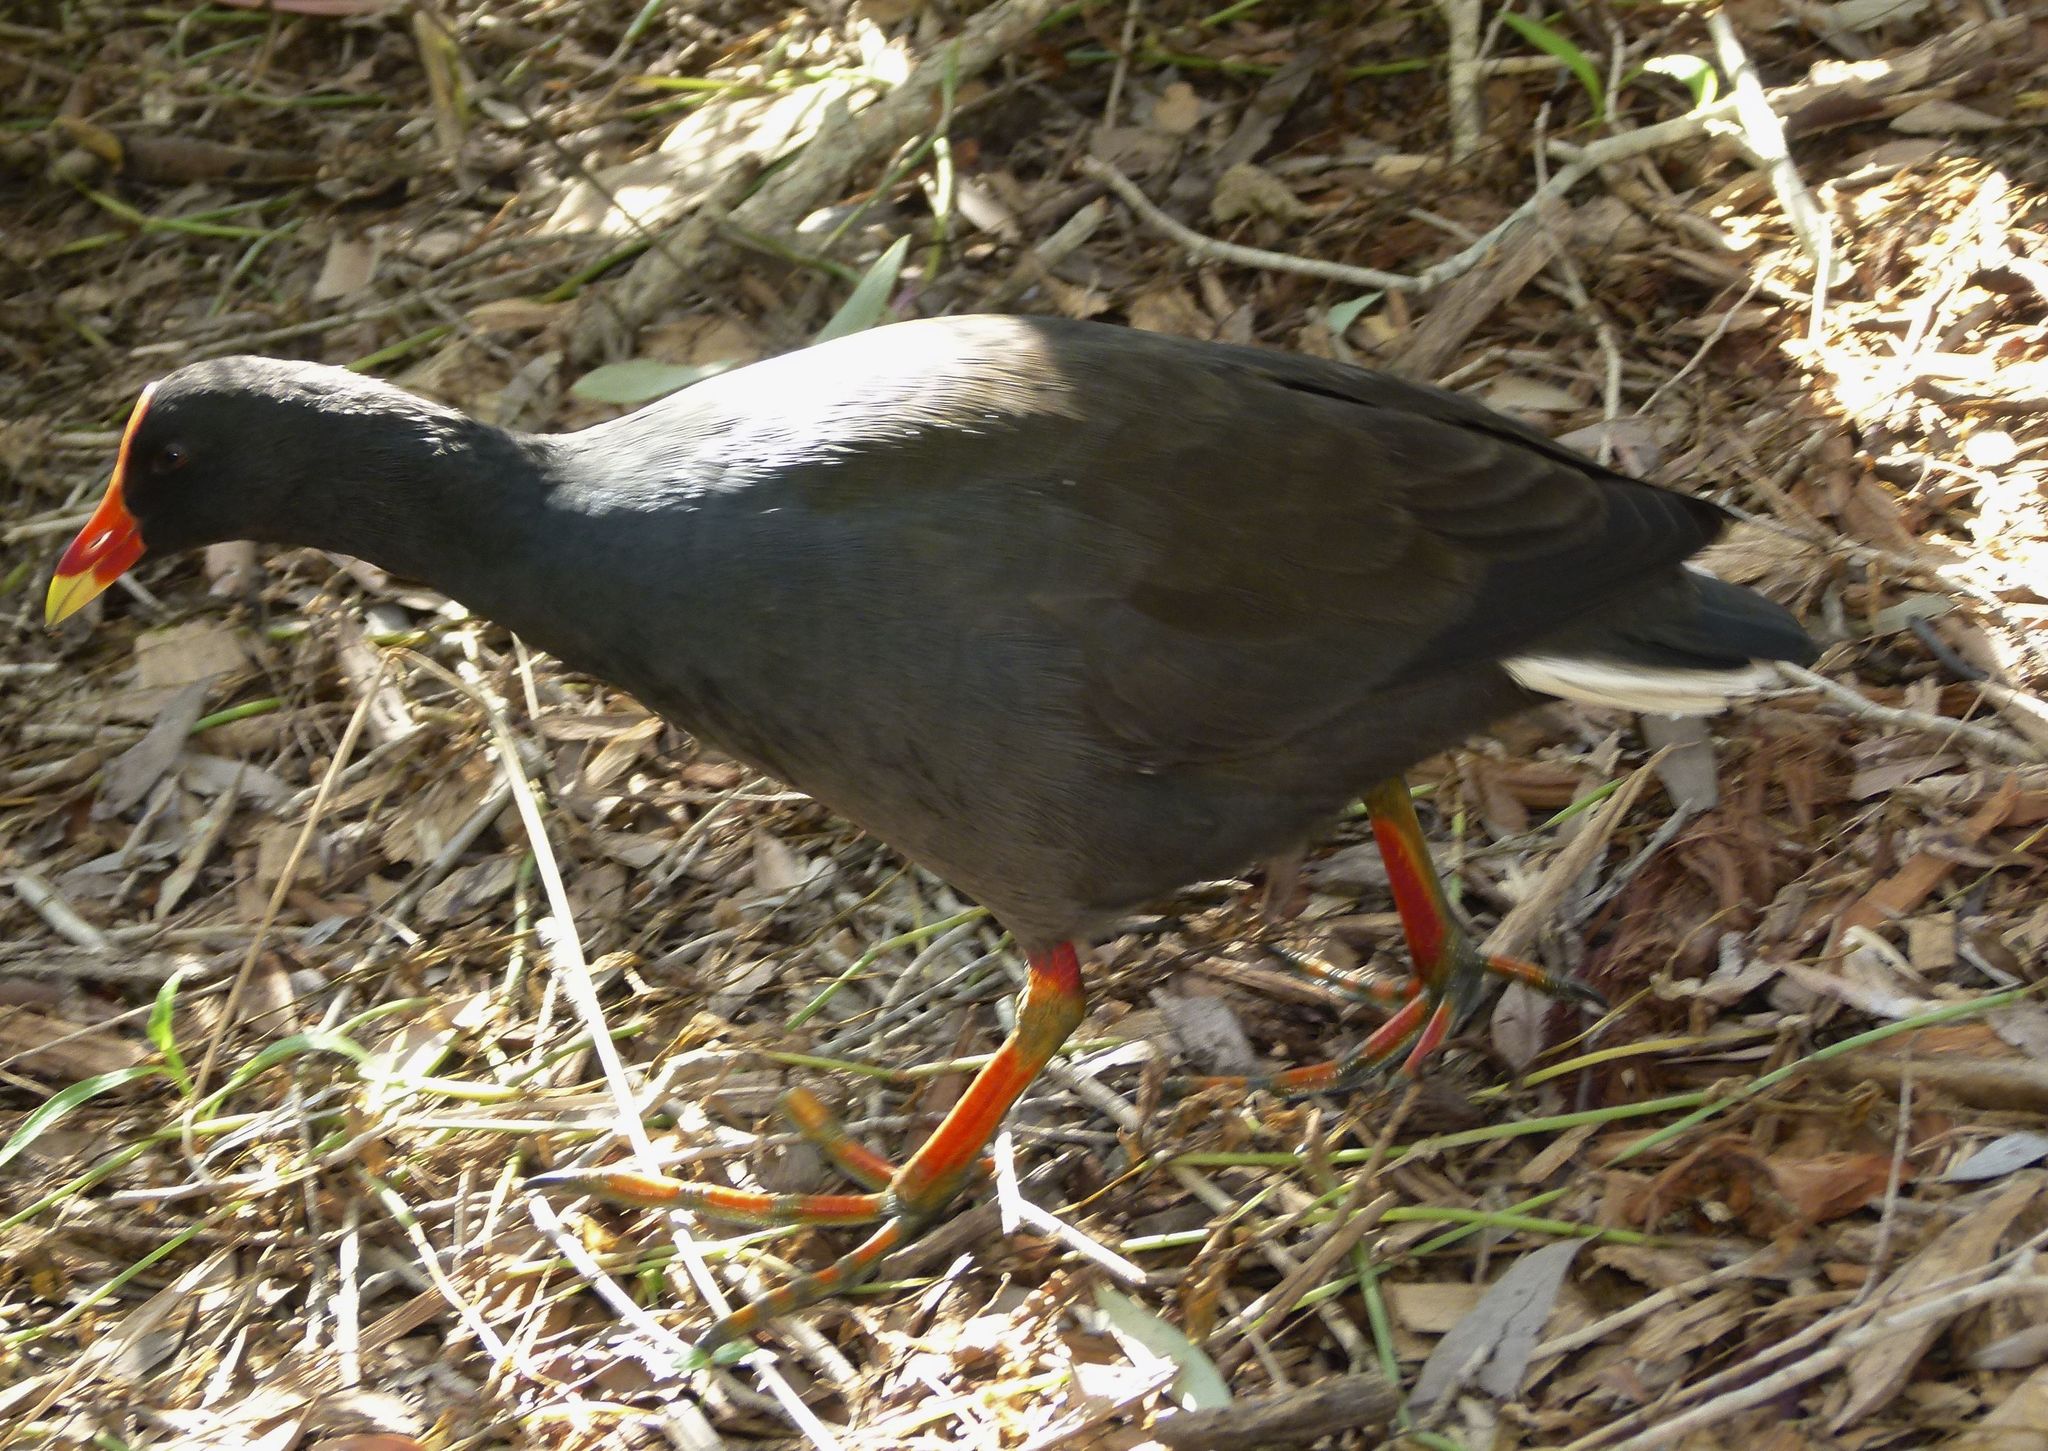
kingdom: Animalia
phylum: Chordata
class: Aves
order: Gruiformes
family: Rallidae
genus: Gallinula
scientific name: Gallinula tenebrosa
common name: Dusky moorhen
